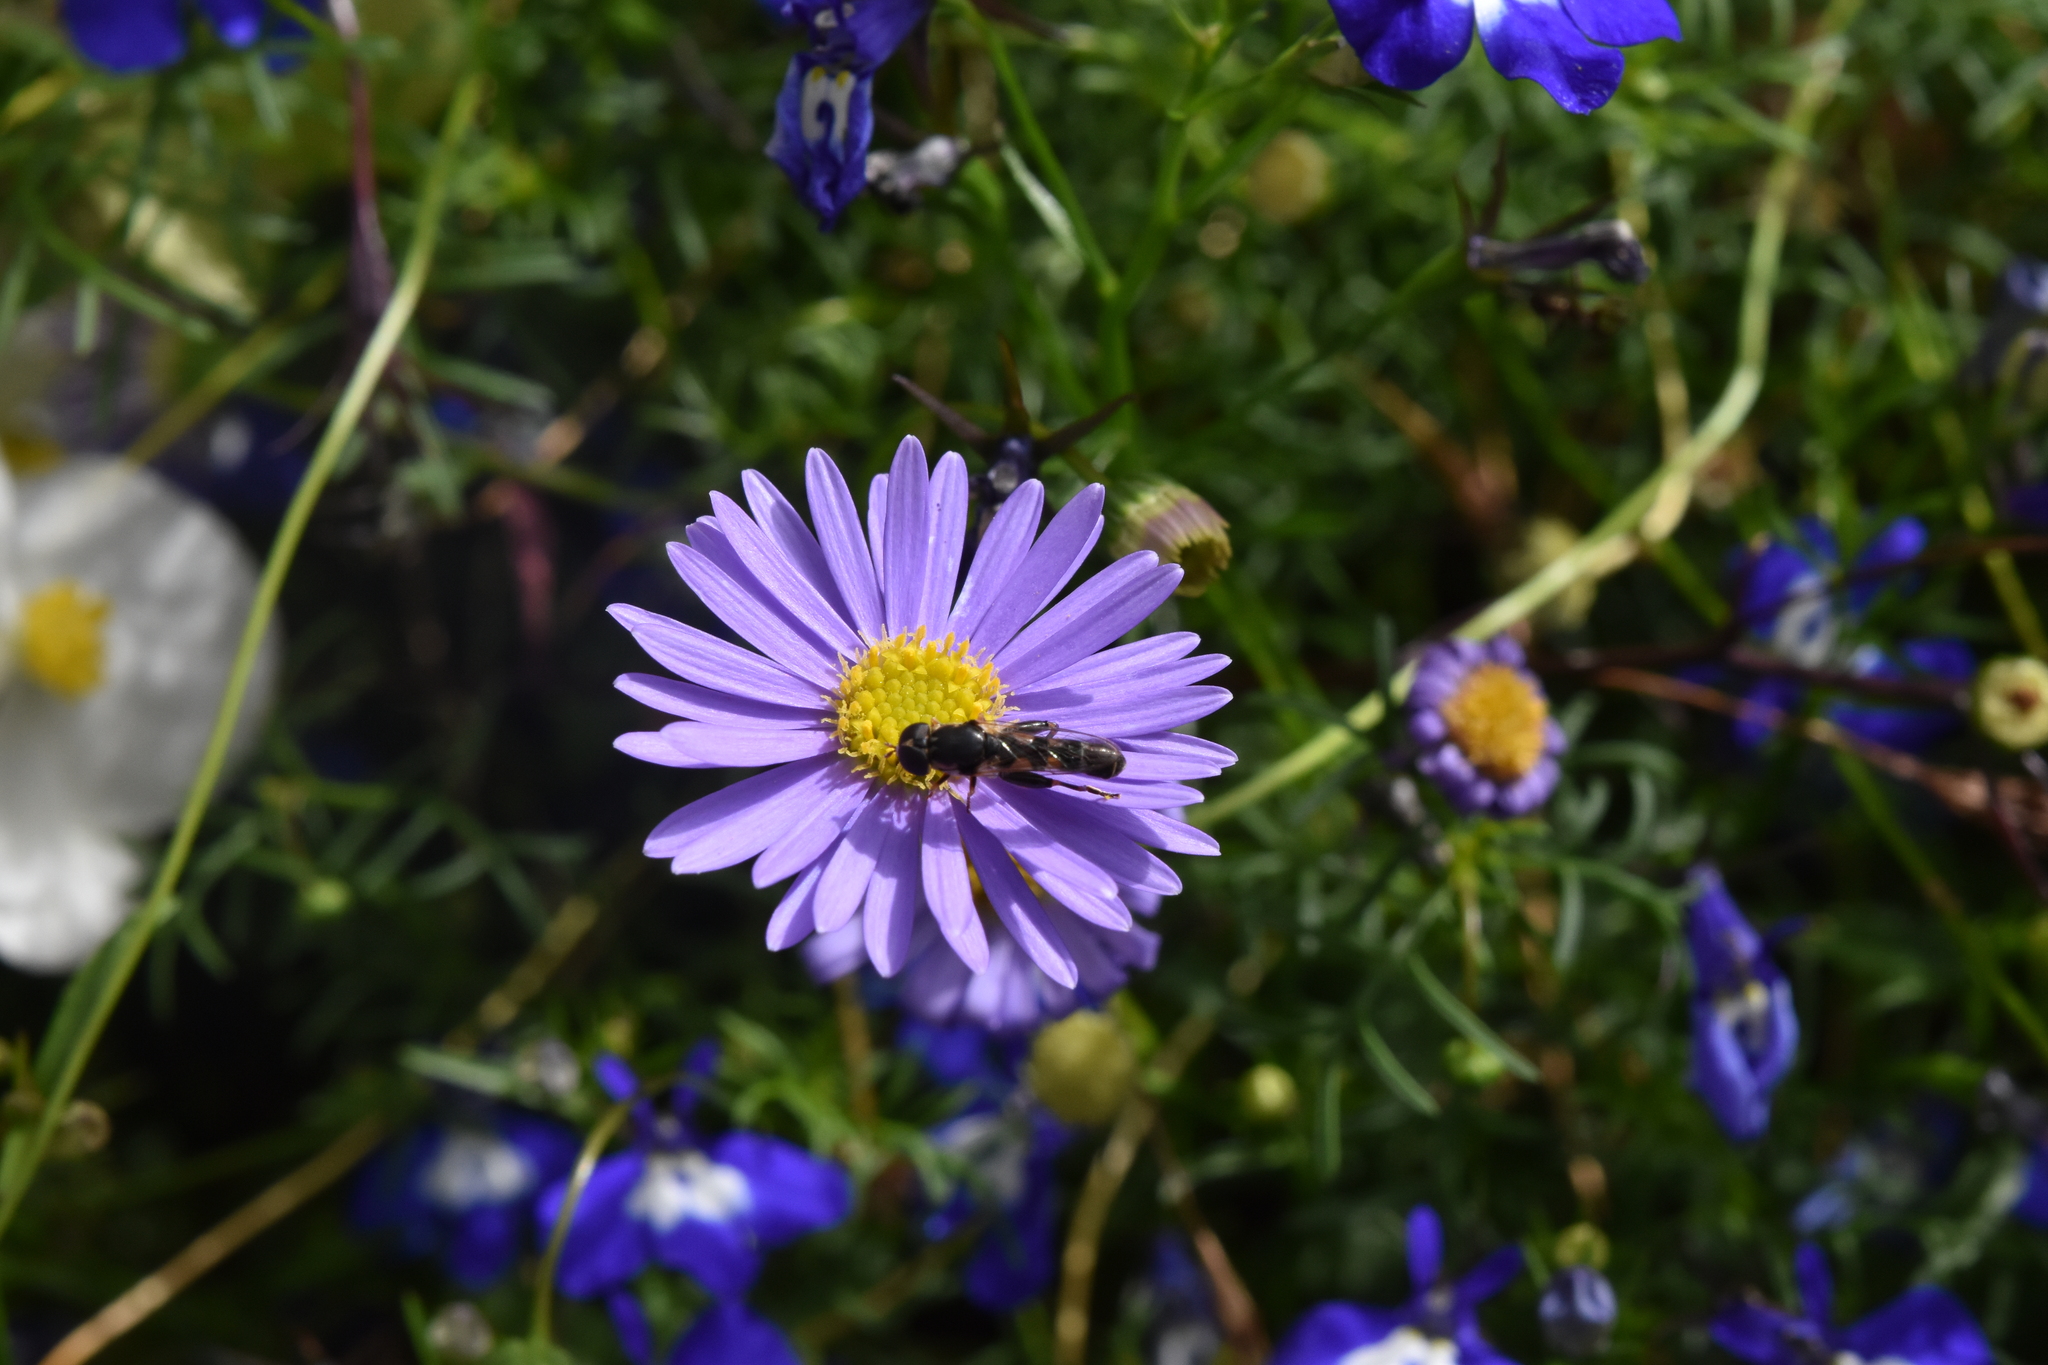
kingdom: Animalia
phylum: Arthropoda
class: Insecta
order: Diptera
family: Syrphidae
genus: Syritta
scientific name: Syritta pipiens
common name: Hover fly
